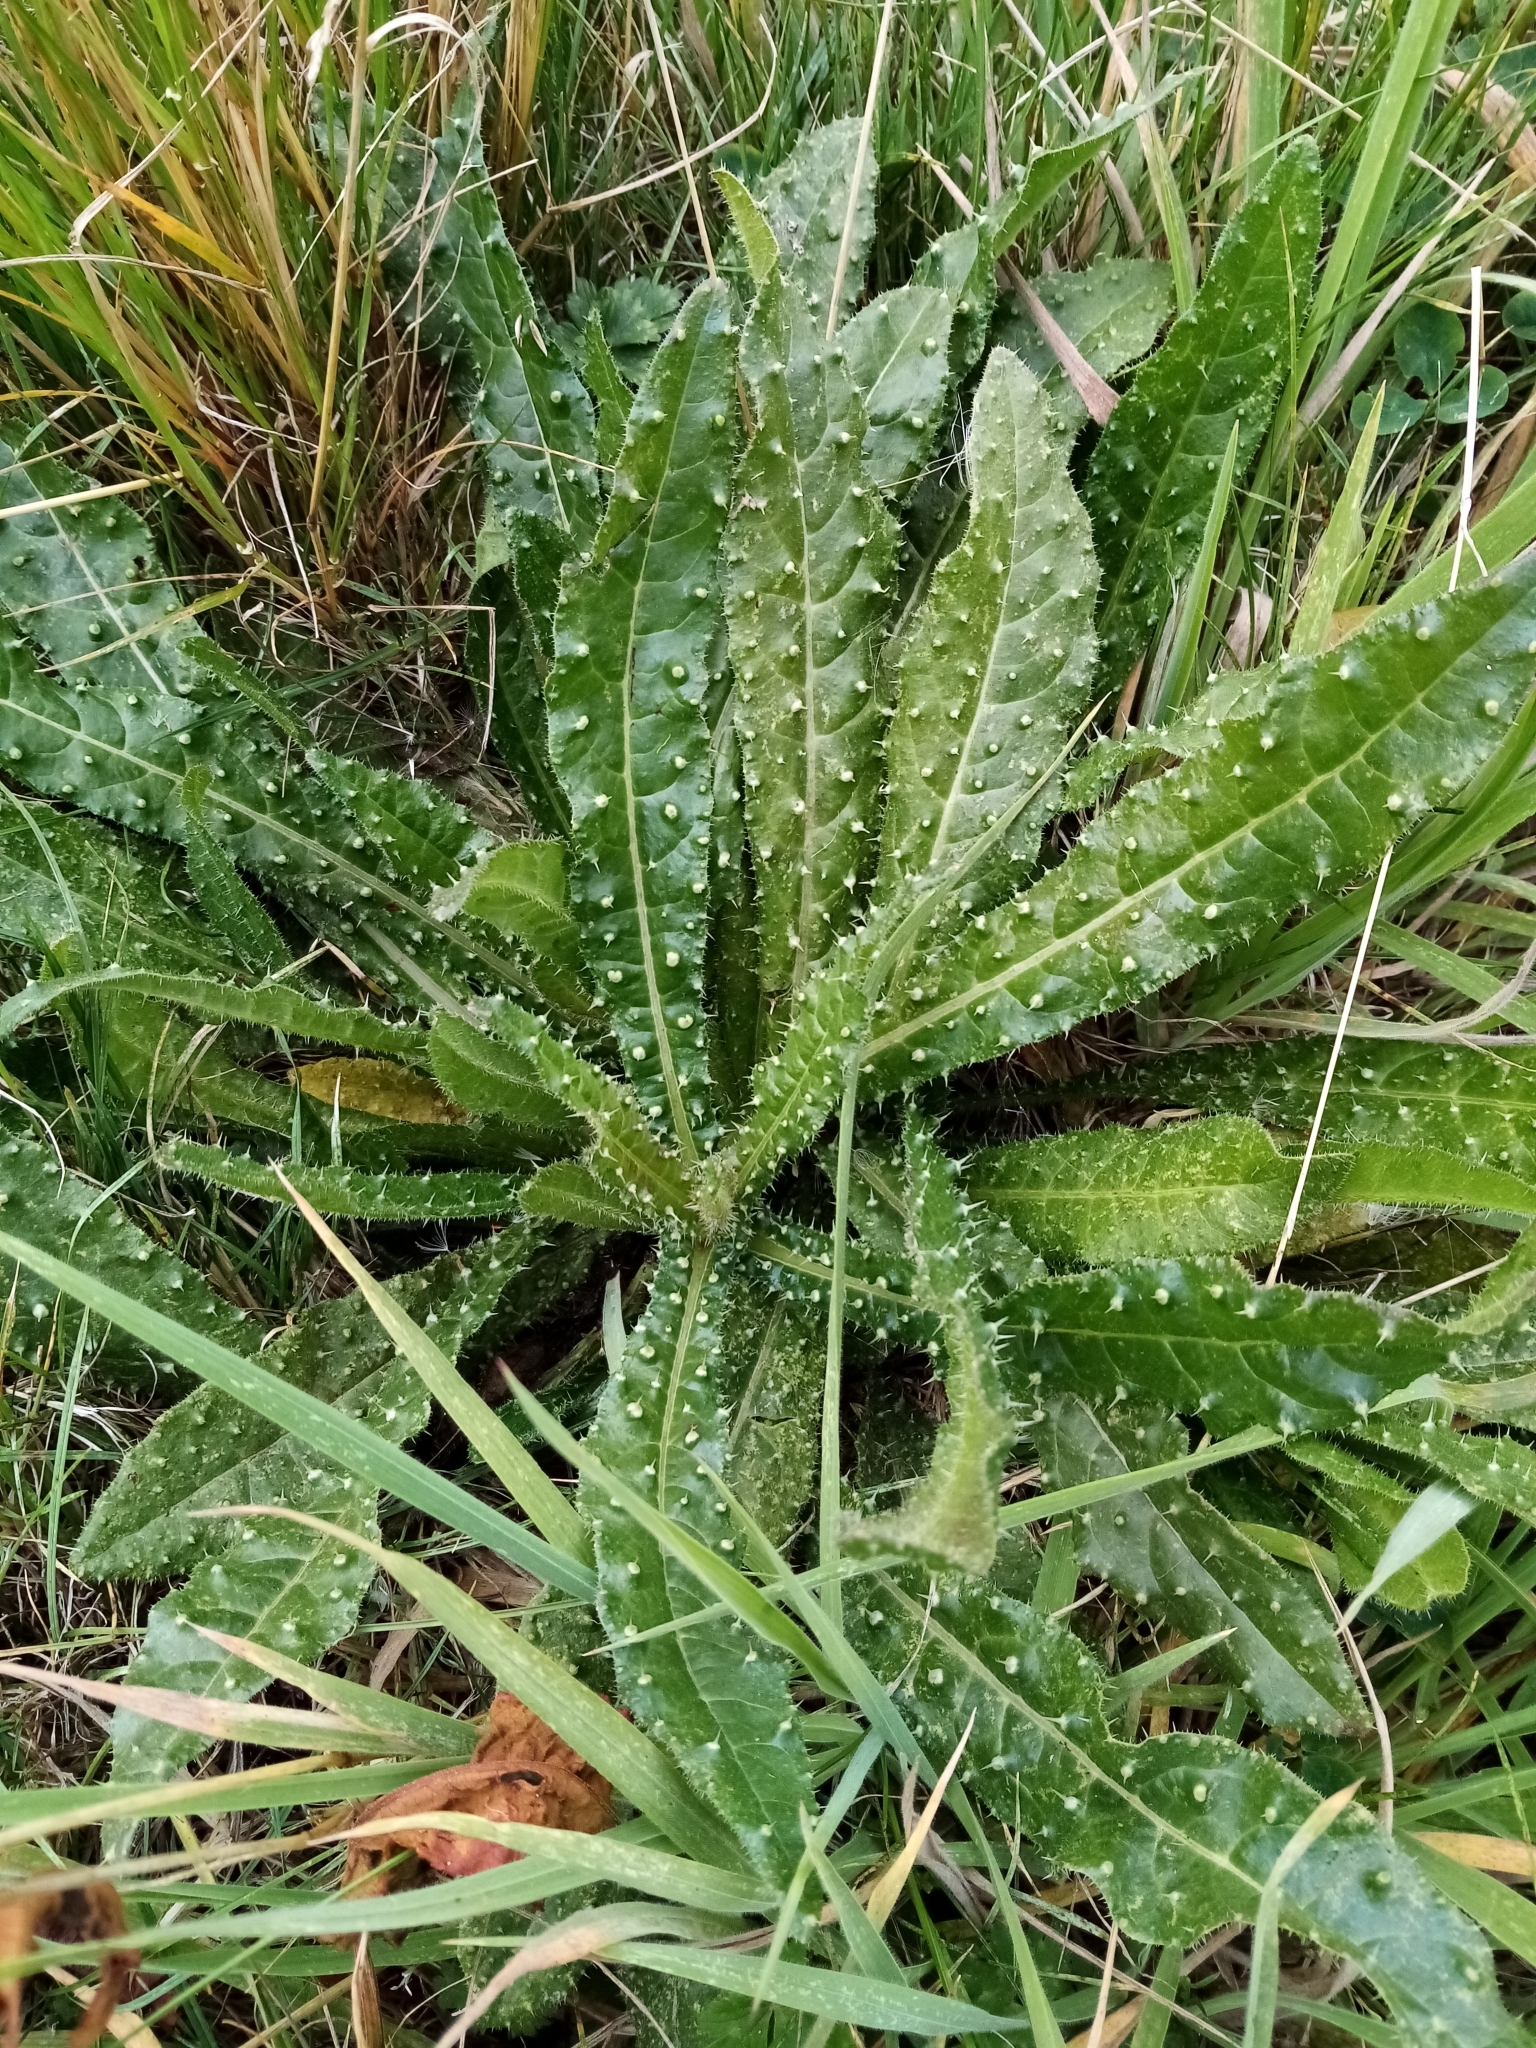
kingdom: Plantae
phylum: Tracheophyta
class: Magnoliopsida
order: Asterales
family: Asteraceae
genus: Helminthotheca
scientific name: Helminthotheca echioides
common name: Ox-tongue
